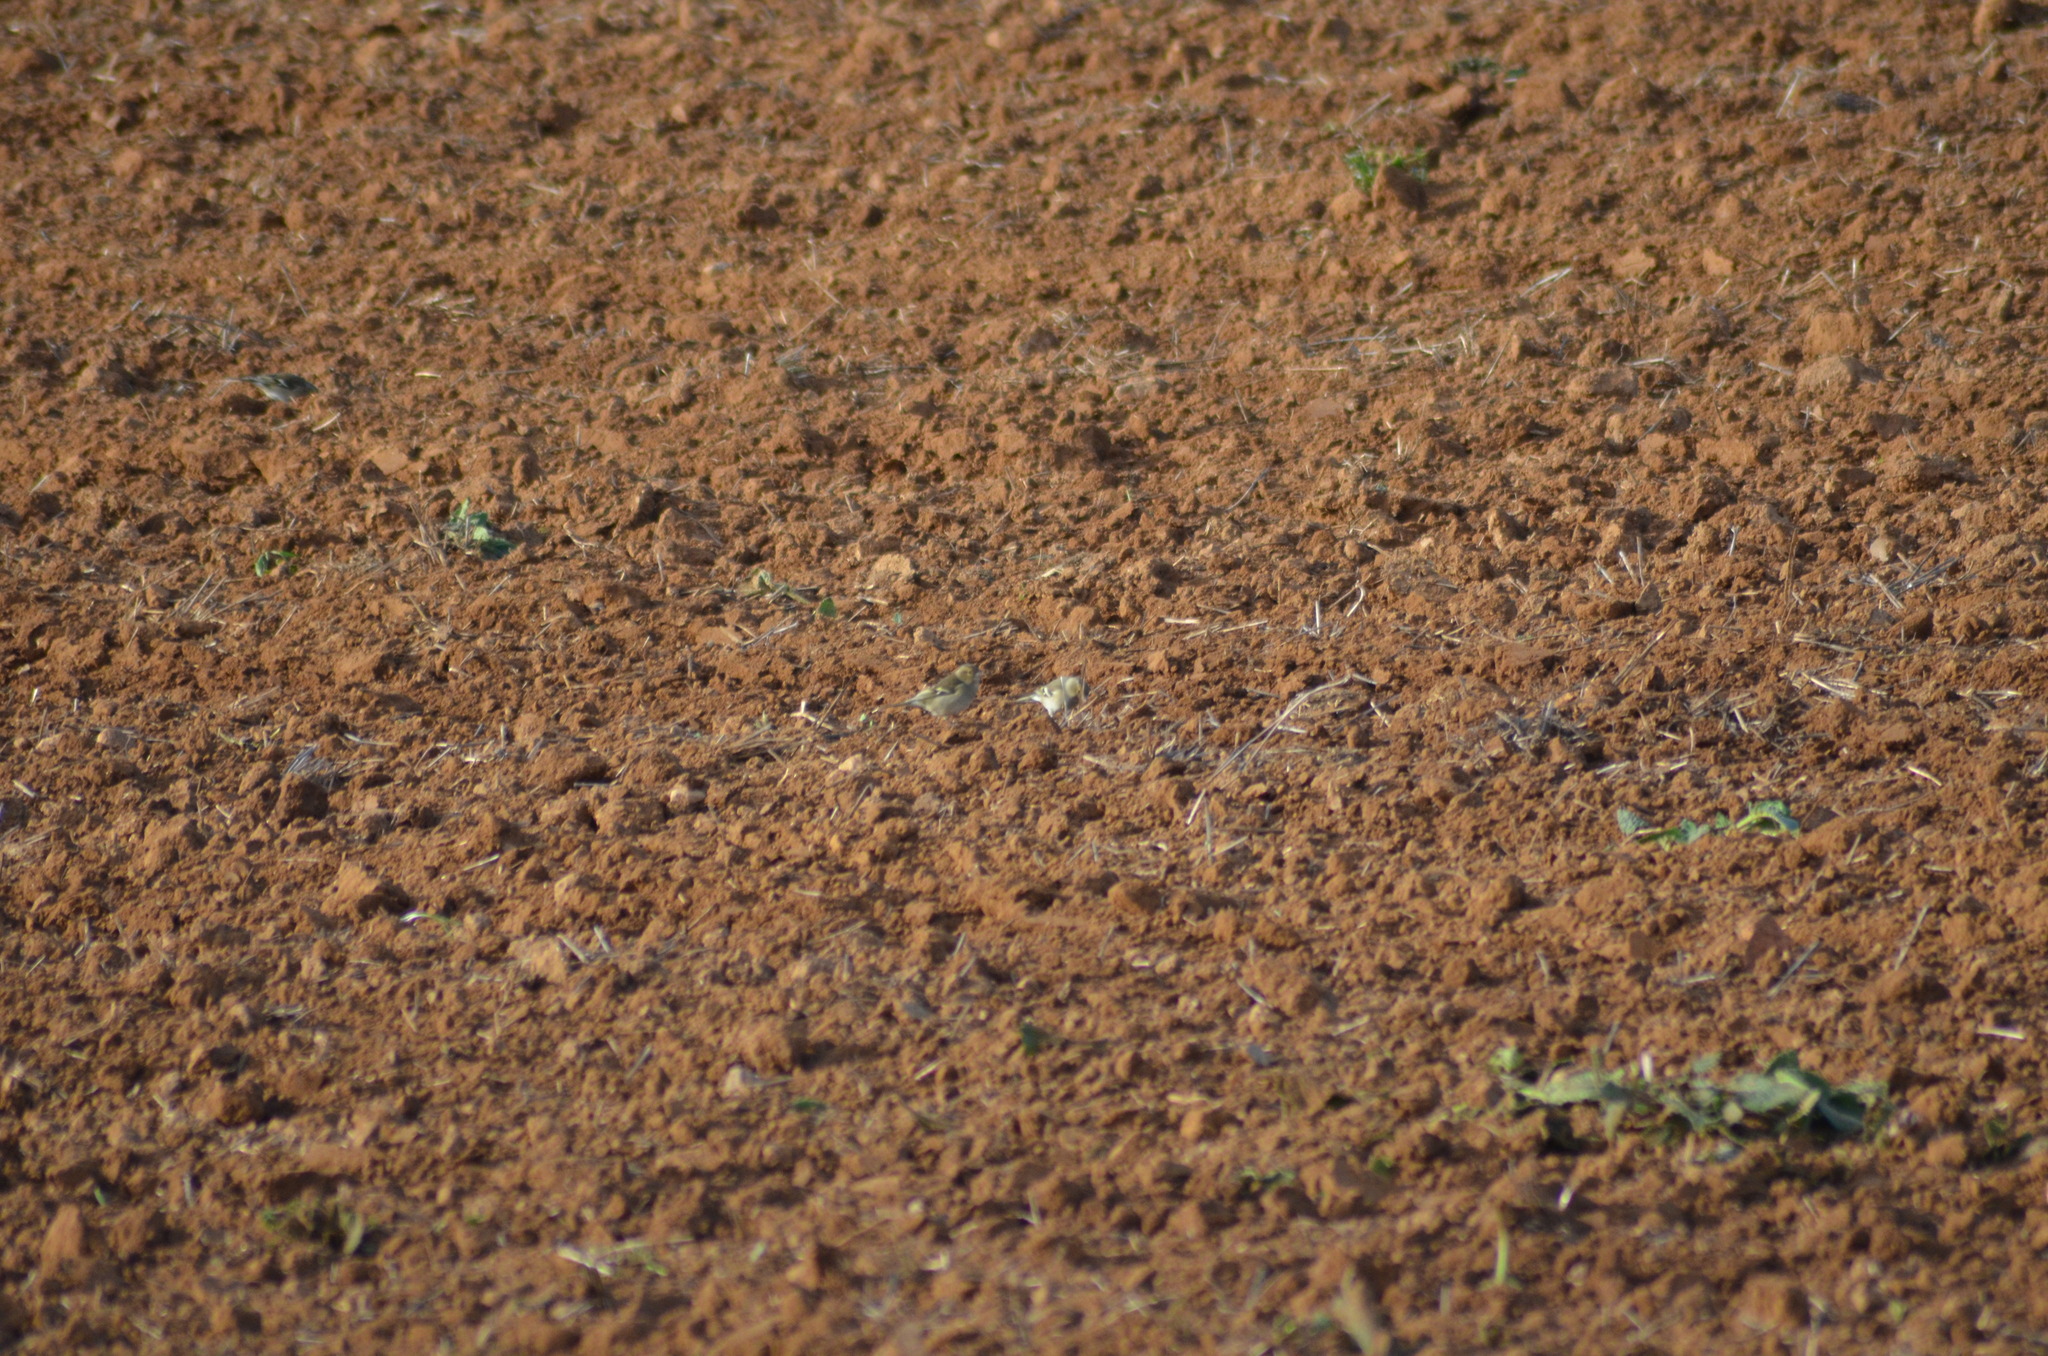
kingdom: Animalia
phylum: Chordata
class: Aves
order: Passeriformes
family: Fringillidae
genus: Fringilla
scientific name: Fringilla coelebs
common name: Common chaffinch
